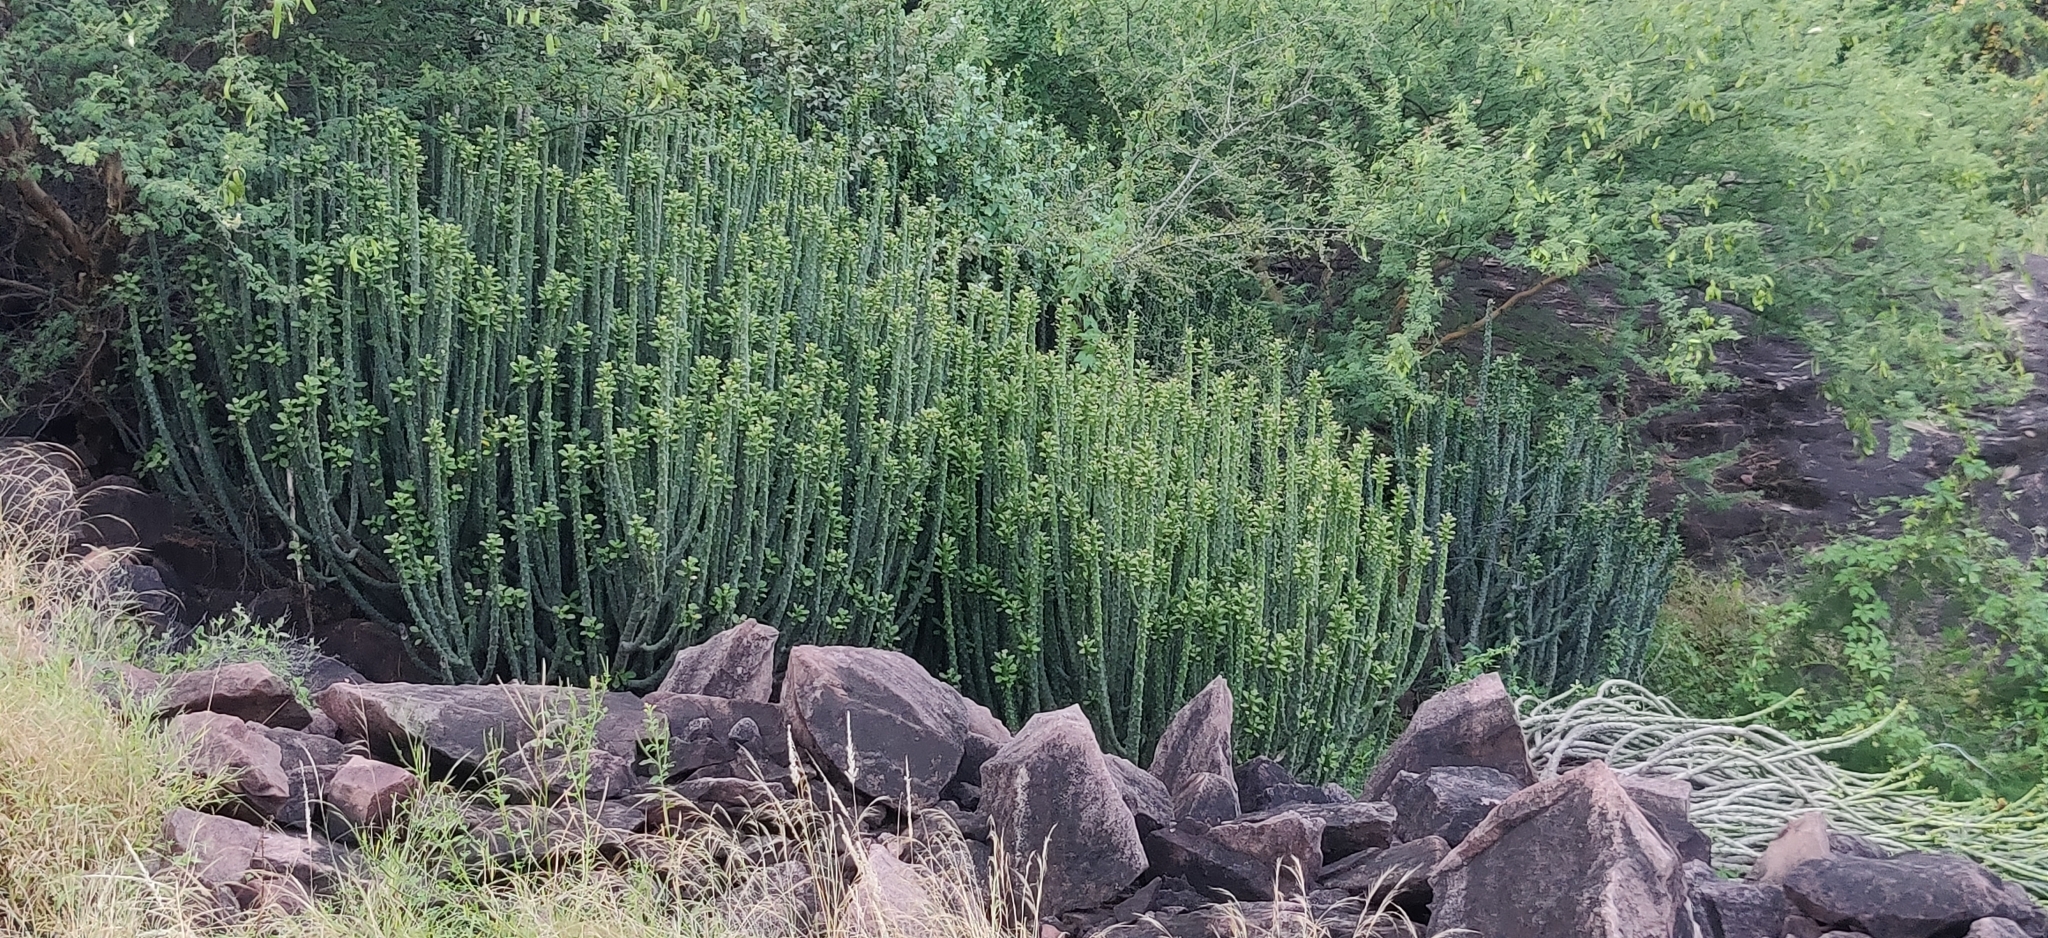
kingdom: Plantae
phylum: Tracheophyta
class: Magnoliopsida
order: Malpighiales
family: Euphorbiaceae
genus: Euphorbia
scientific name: Euphorbia caducifolia
